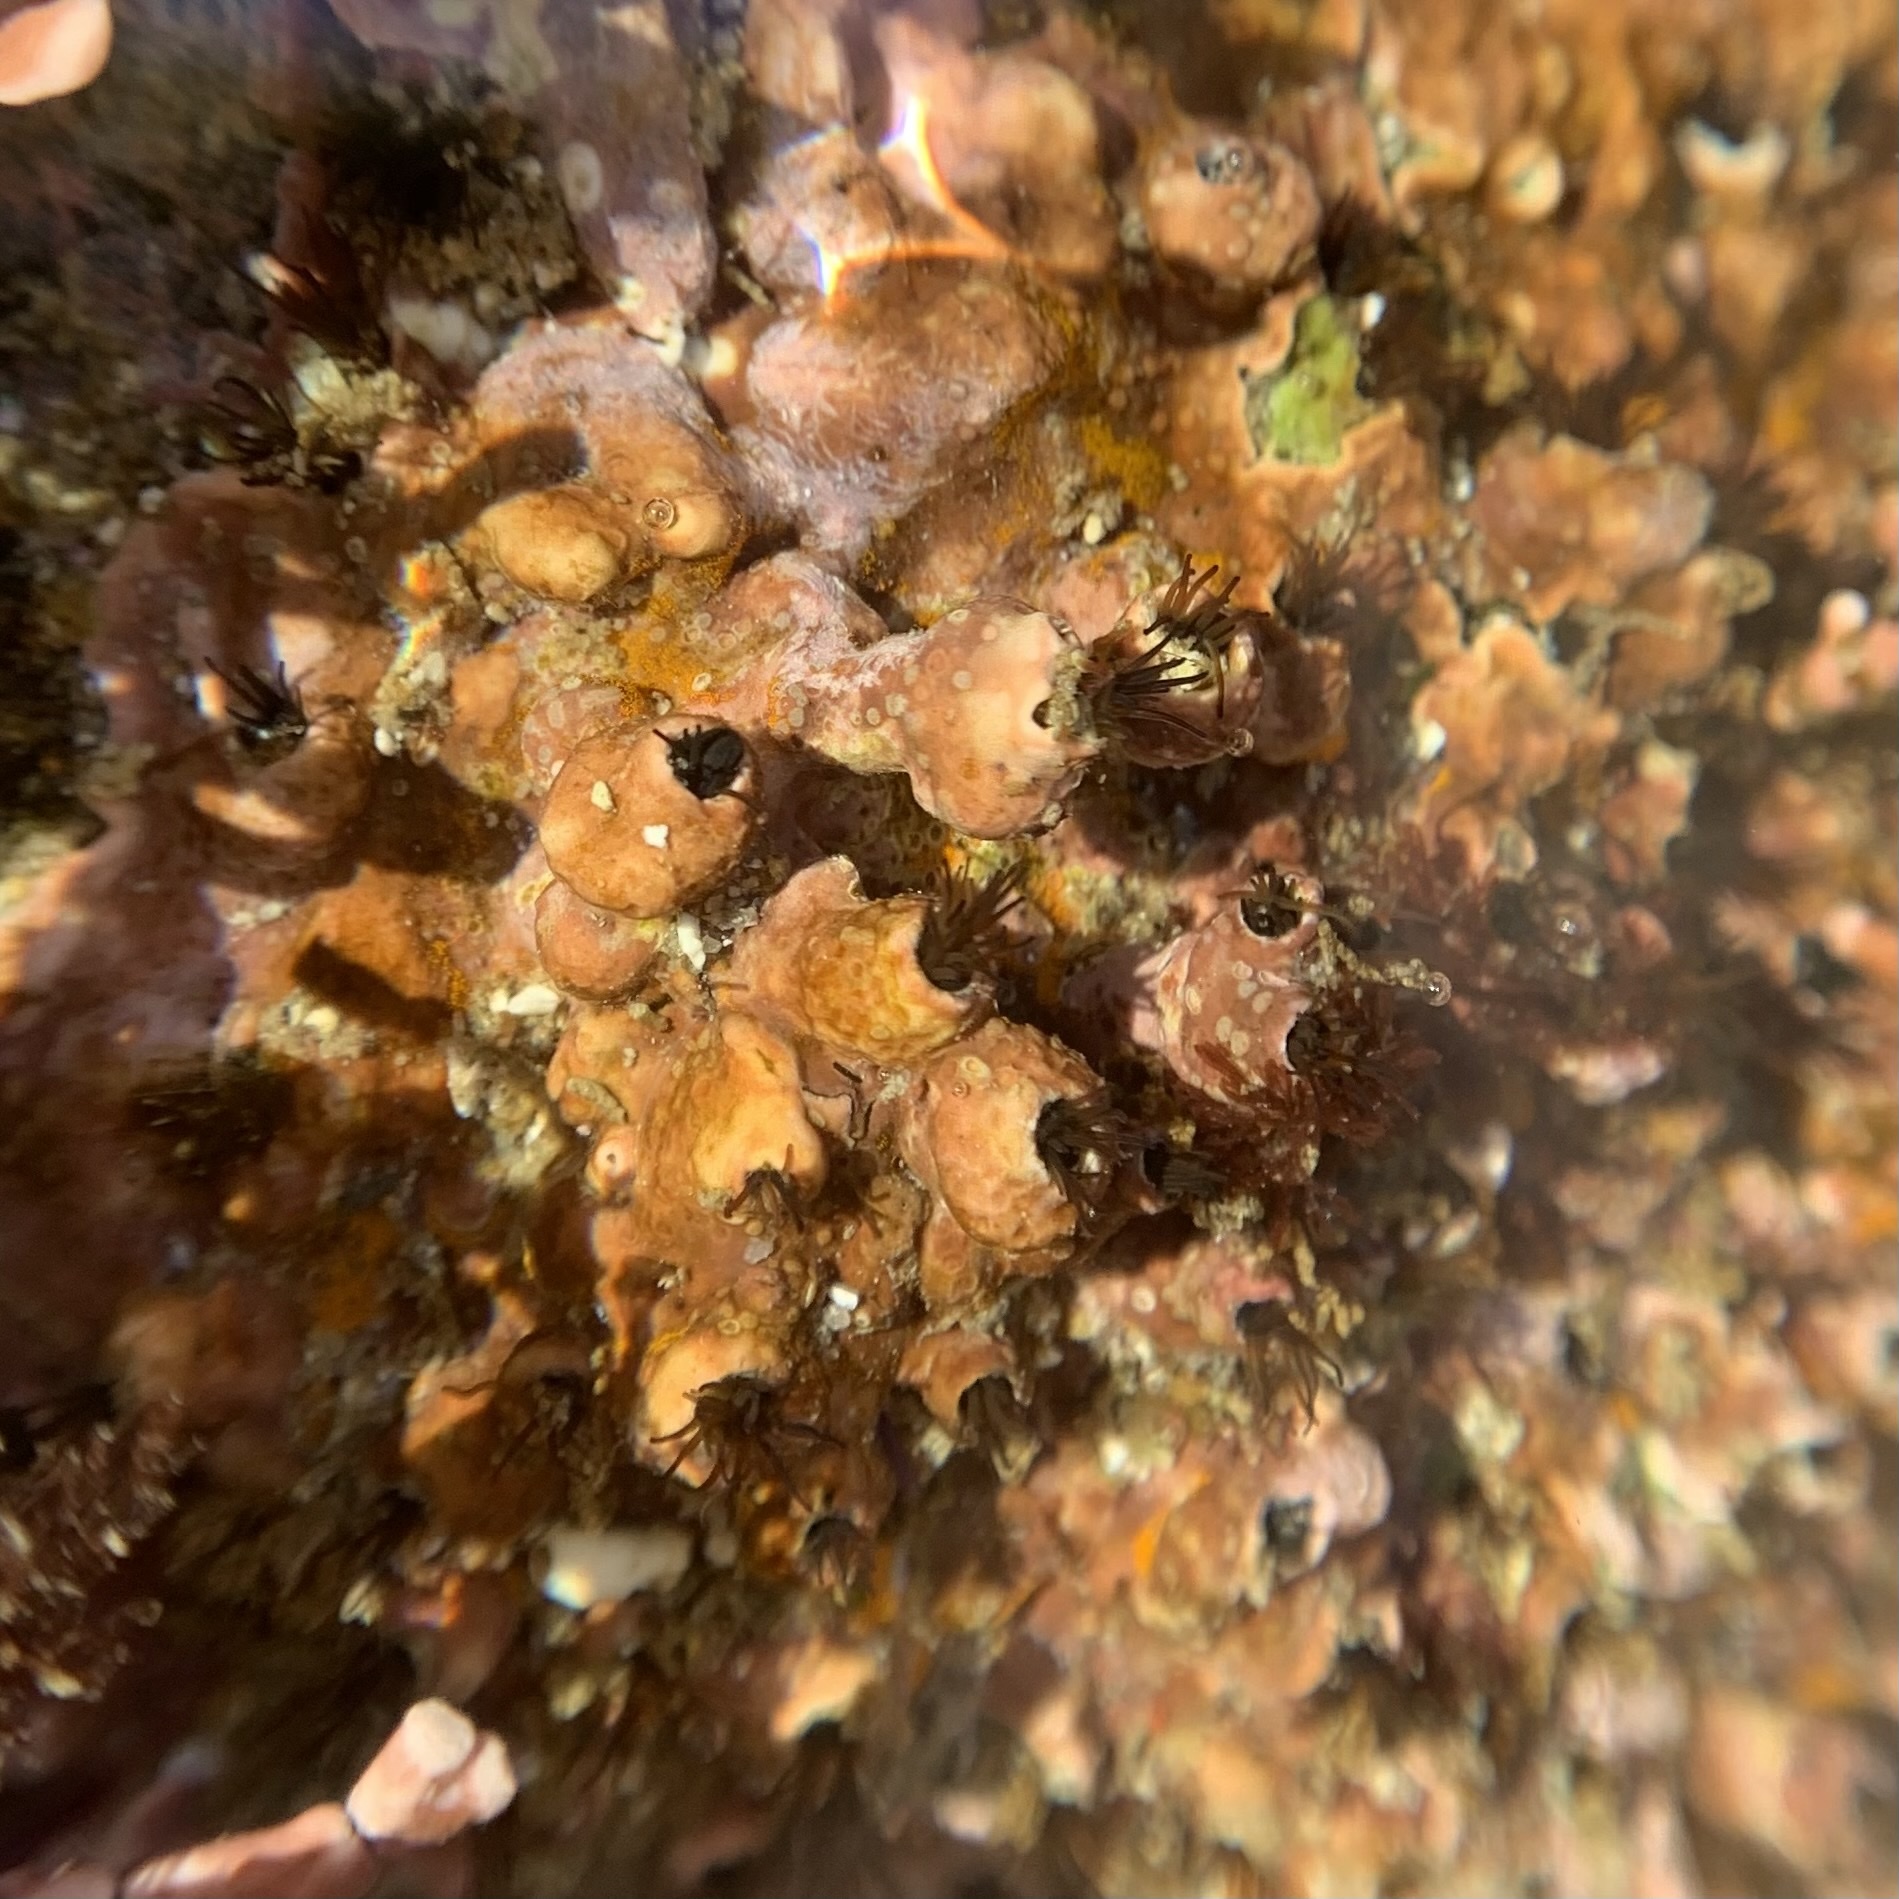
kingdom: Animalia
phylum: Annelida
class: Polychaeta
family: Cirratulidae
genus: Dodecaceria
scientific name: Dodecaceria pacifica
